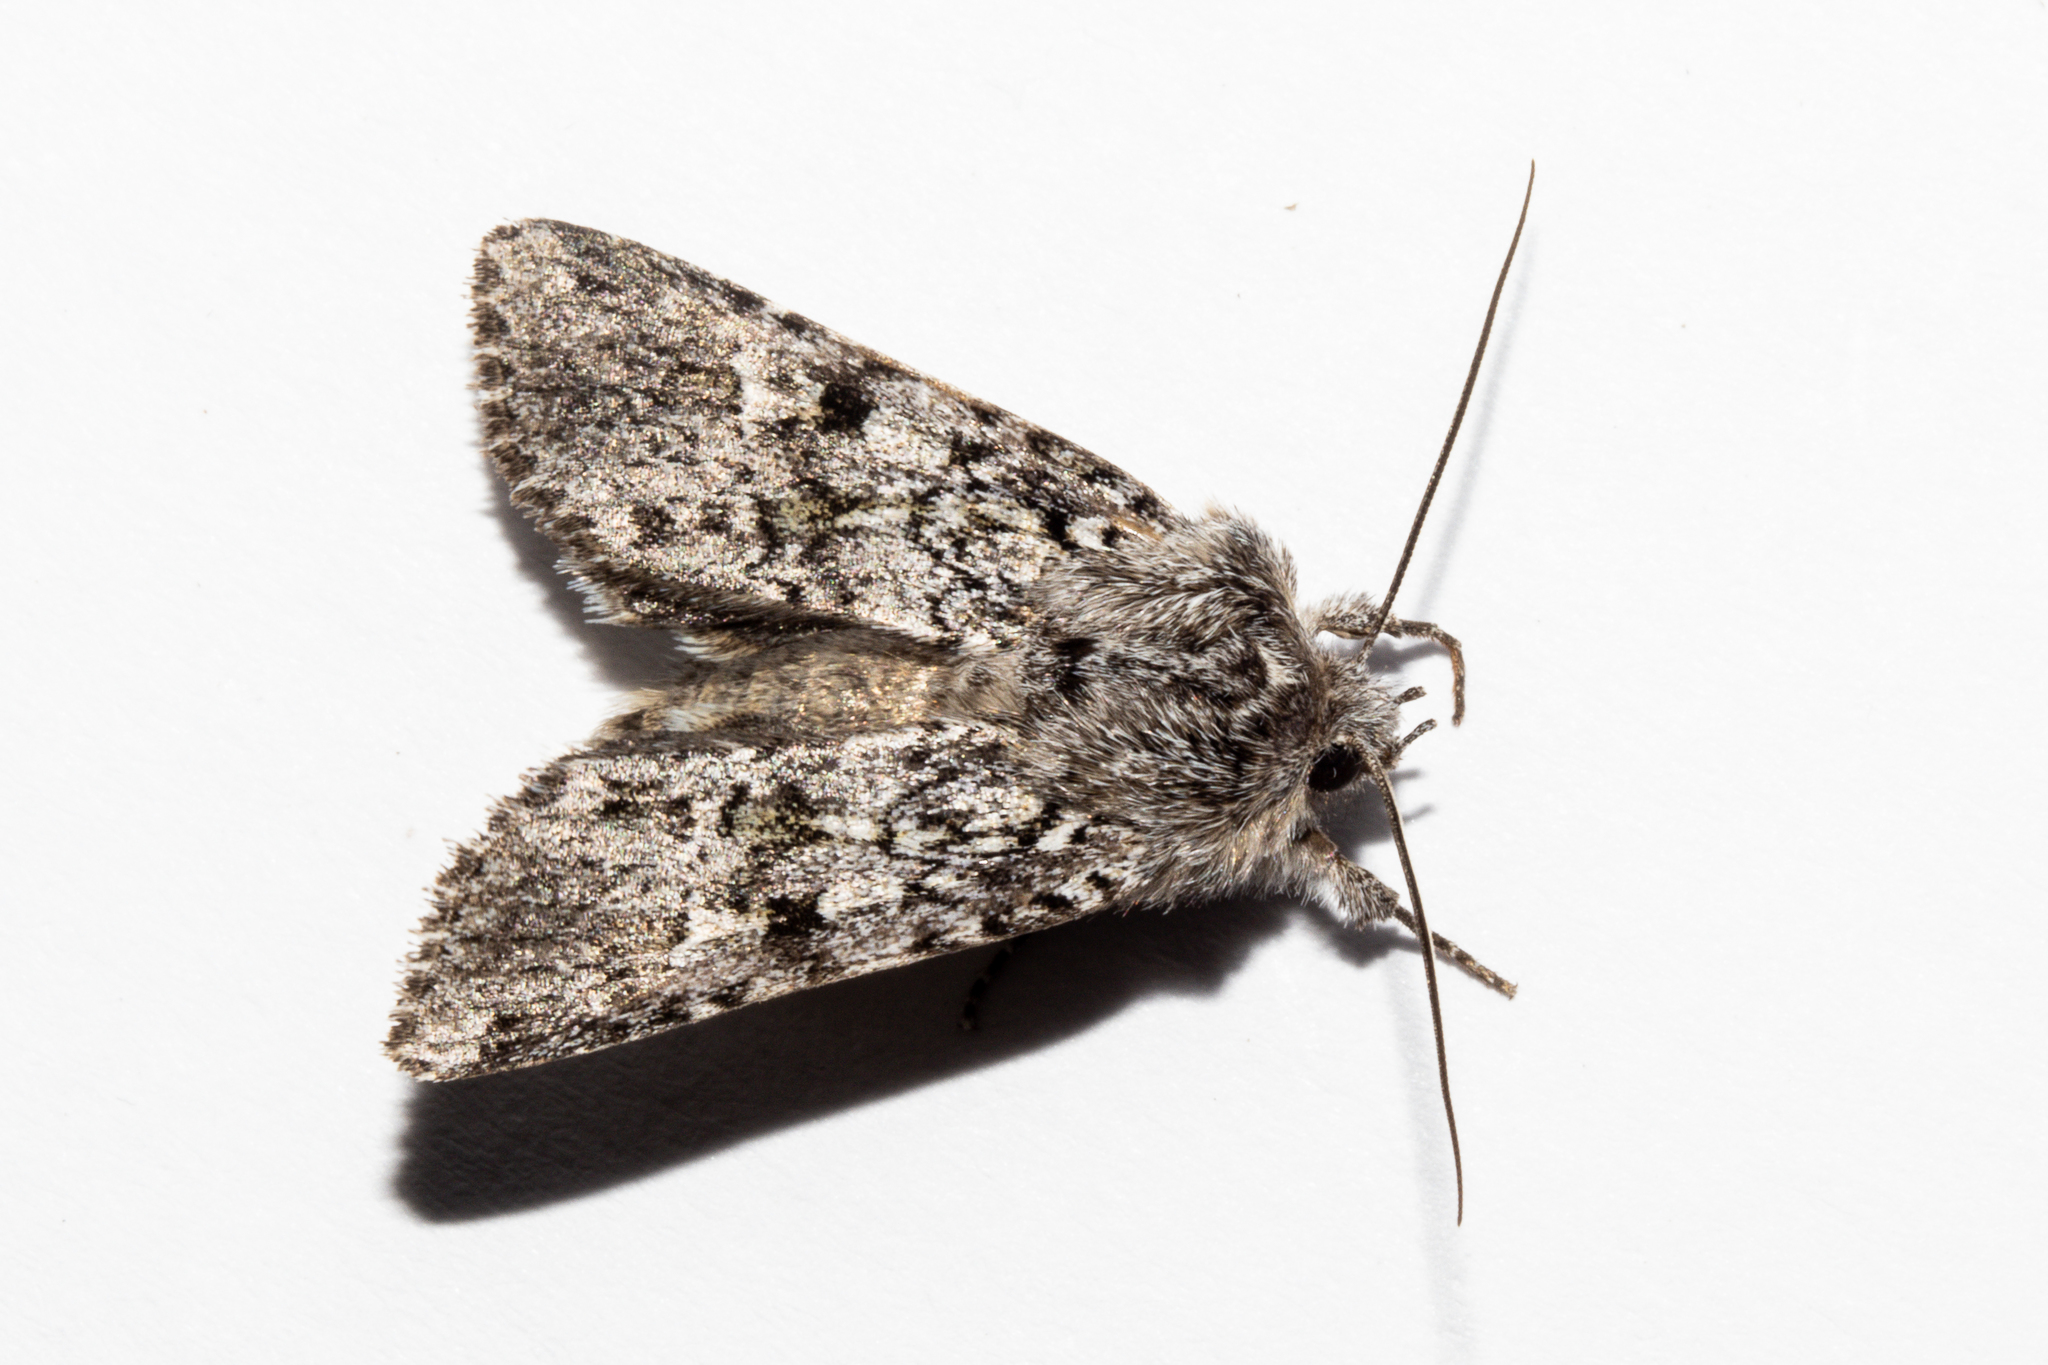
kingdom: Animalia
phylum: Arthropoda
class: Insecta
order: Lepidoptera
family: Noctuidae
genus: Physetica
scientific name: Physetica cucullina
